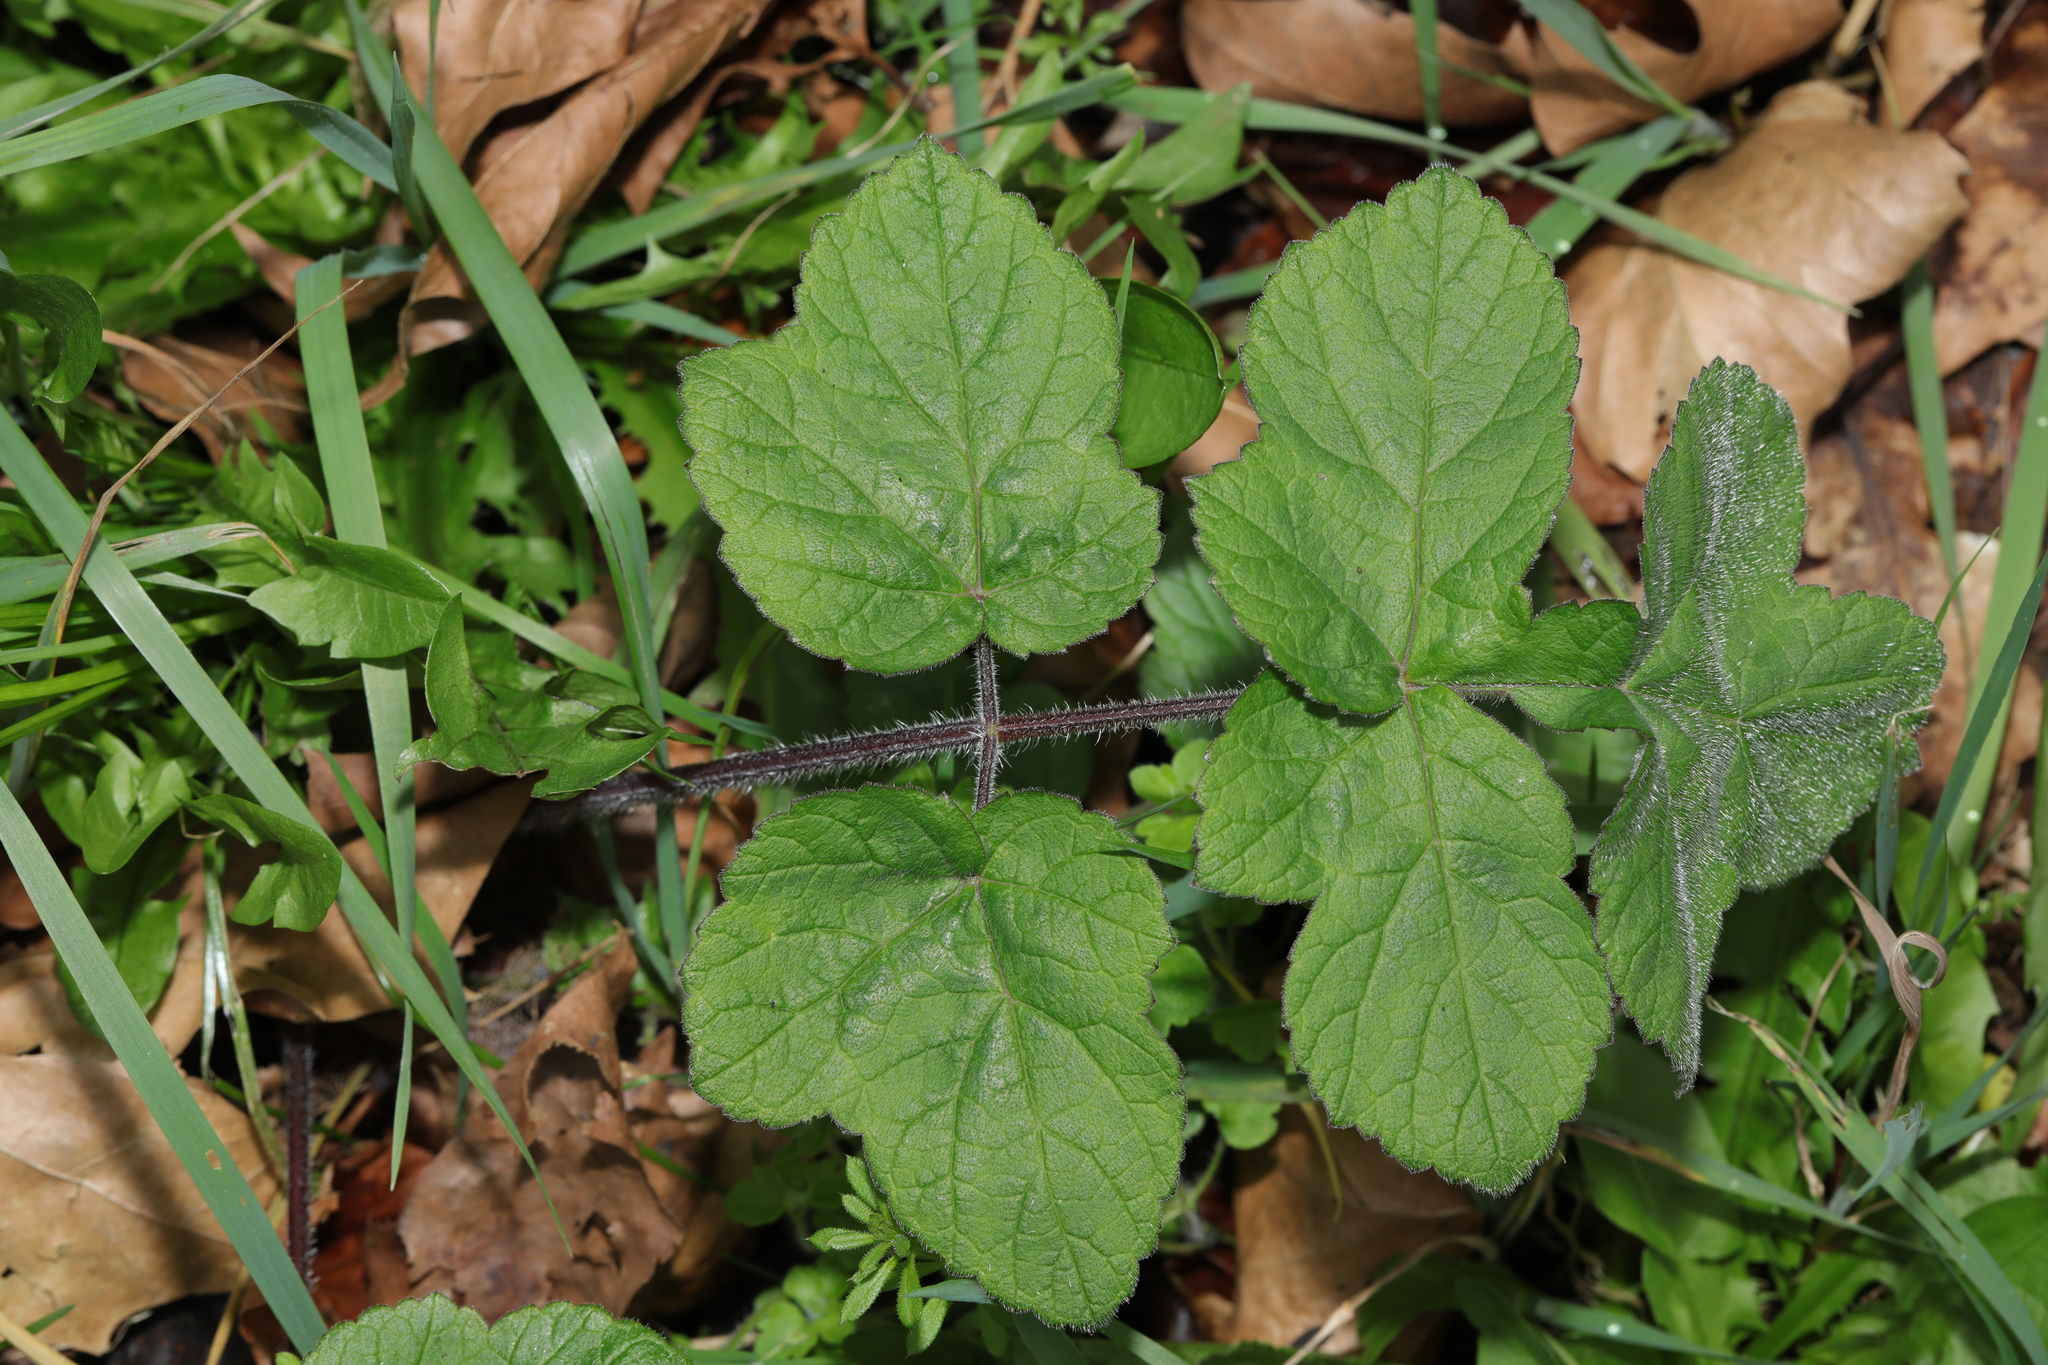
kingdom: Plantae
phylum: Tracheophyta
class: Magnoliopsida
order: Apiales
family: Apiaceae
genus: Heracleum
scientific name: Heracleum sphondylium
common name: Hogweed
